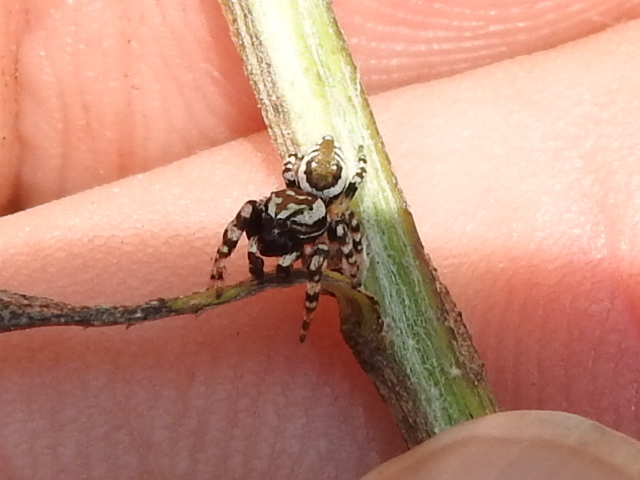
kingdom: Animalia
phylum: Arthropoda
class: Arachnida
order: Araneae
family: Salticidae
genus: Pelegrina
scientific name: Pelegrina galathea
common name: Jumping spiders
